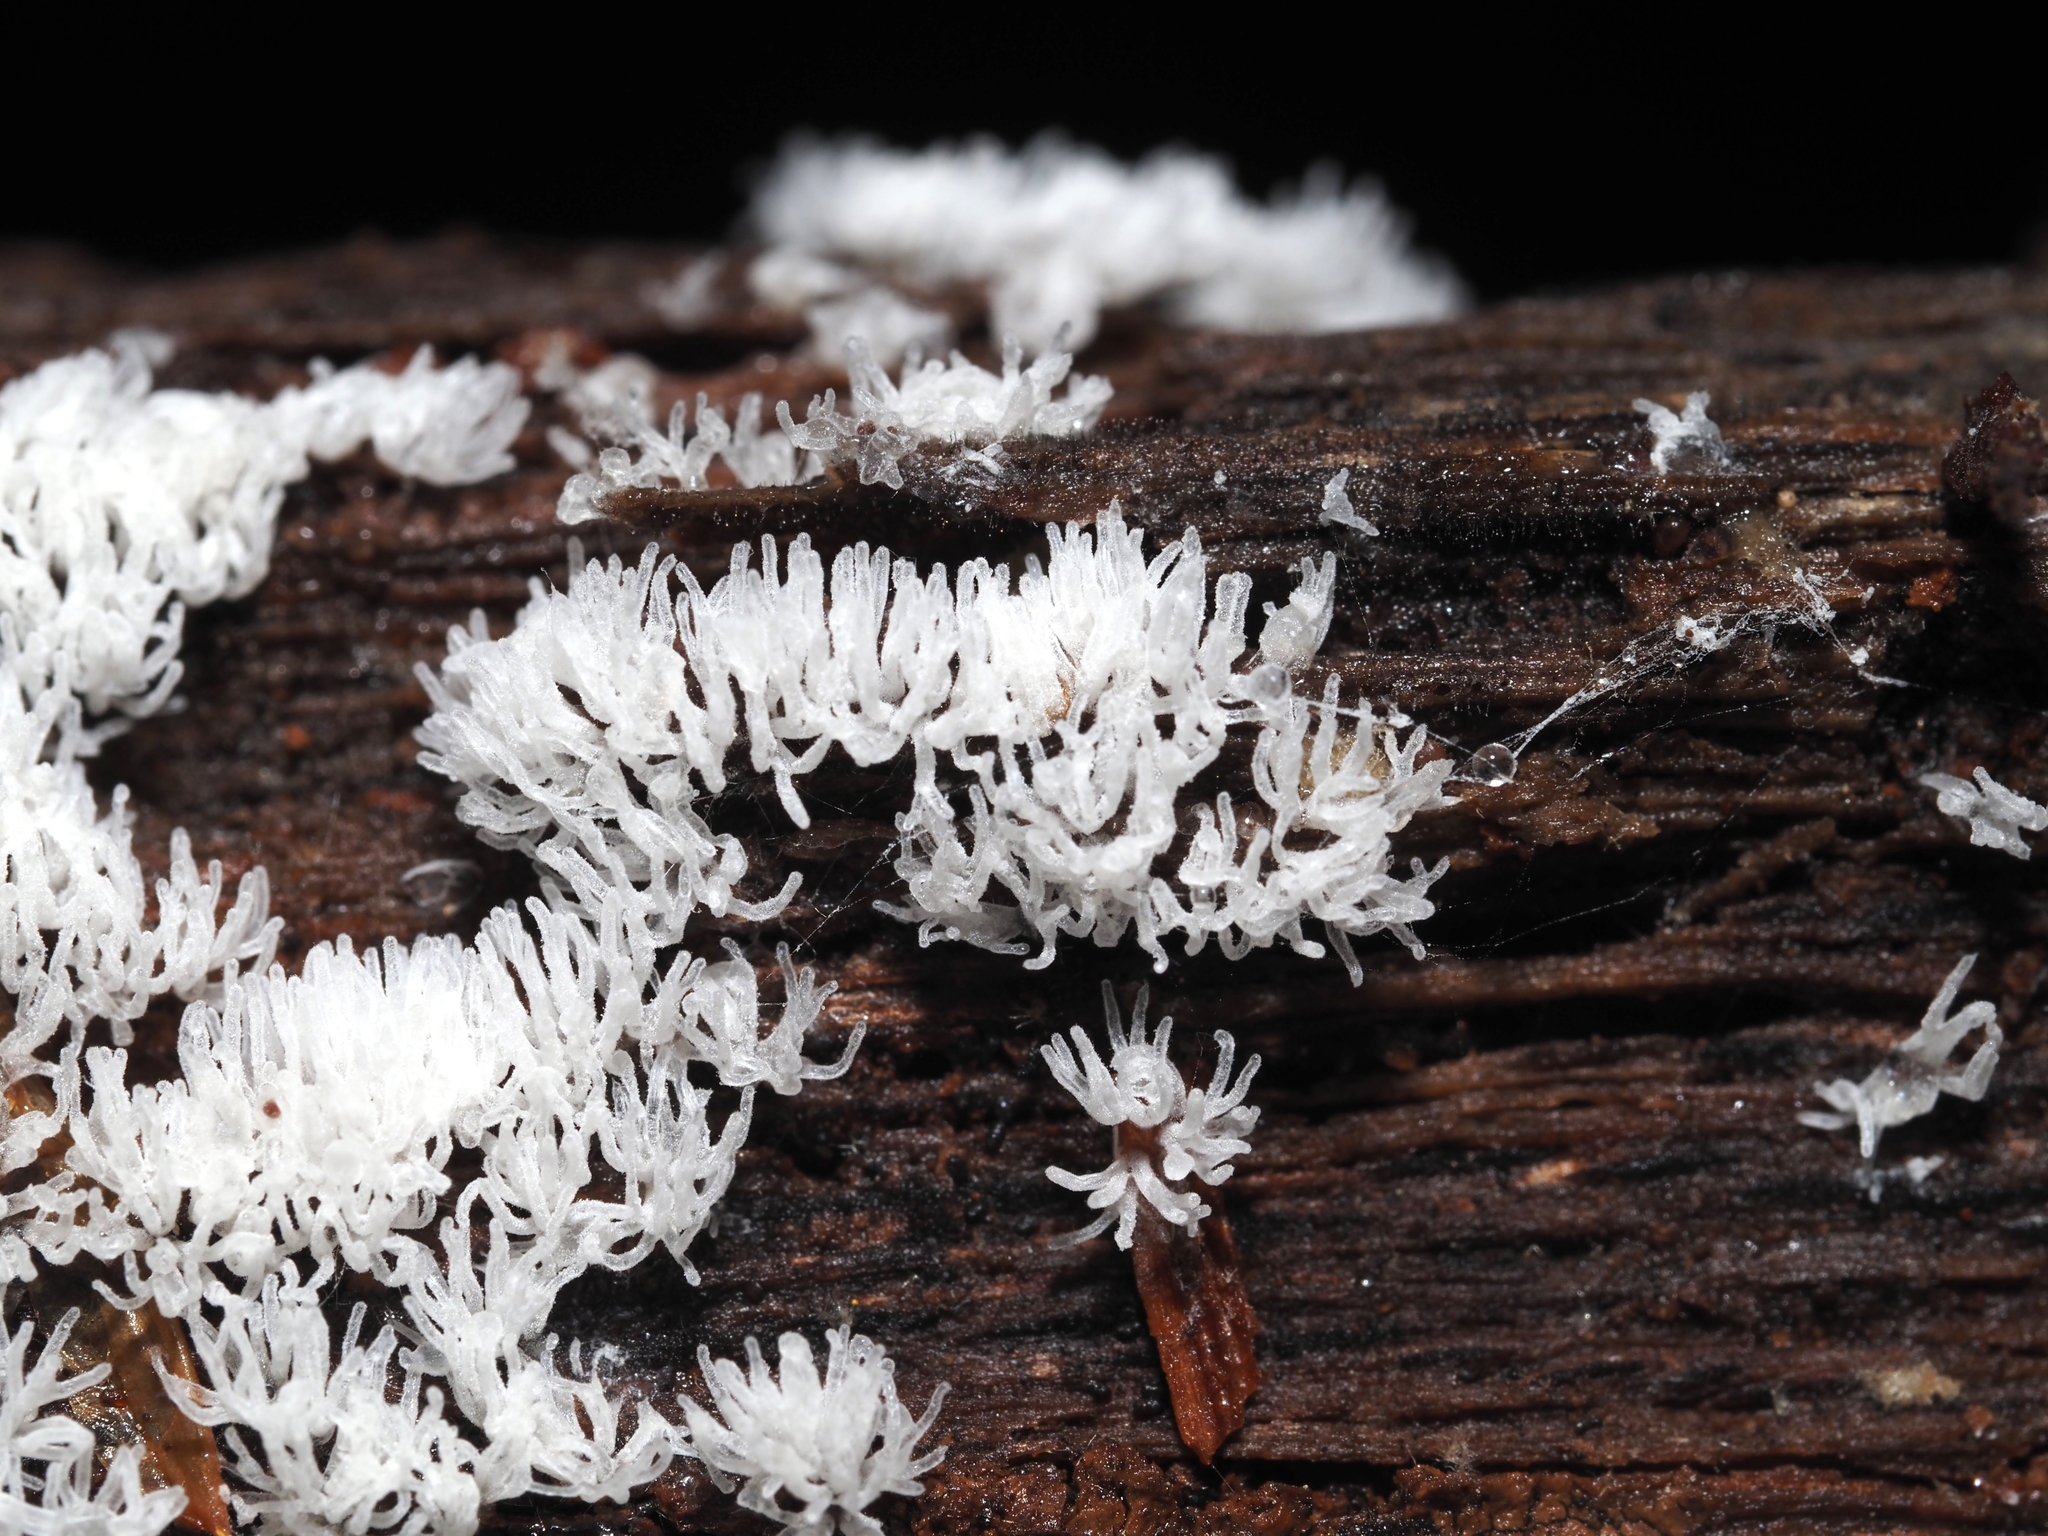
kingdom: Protozoa
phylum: Mycetozoa
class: Protosteliomycetes
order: Ceratiomyxales
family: Ceratiomyxaceae
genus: Ceratiomyxa
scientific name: Ceratiomyxa fruticulosa
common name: Honeycomb coral slime mold
